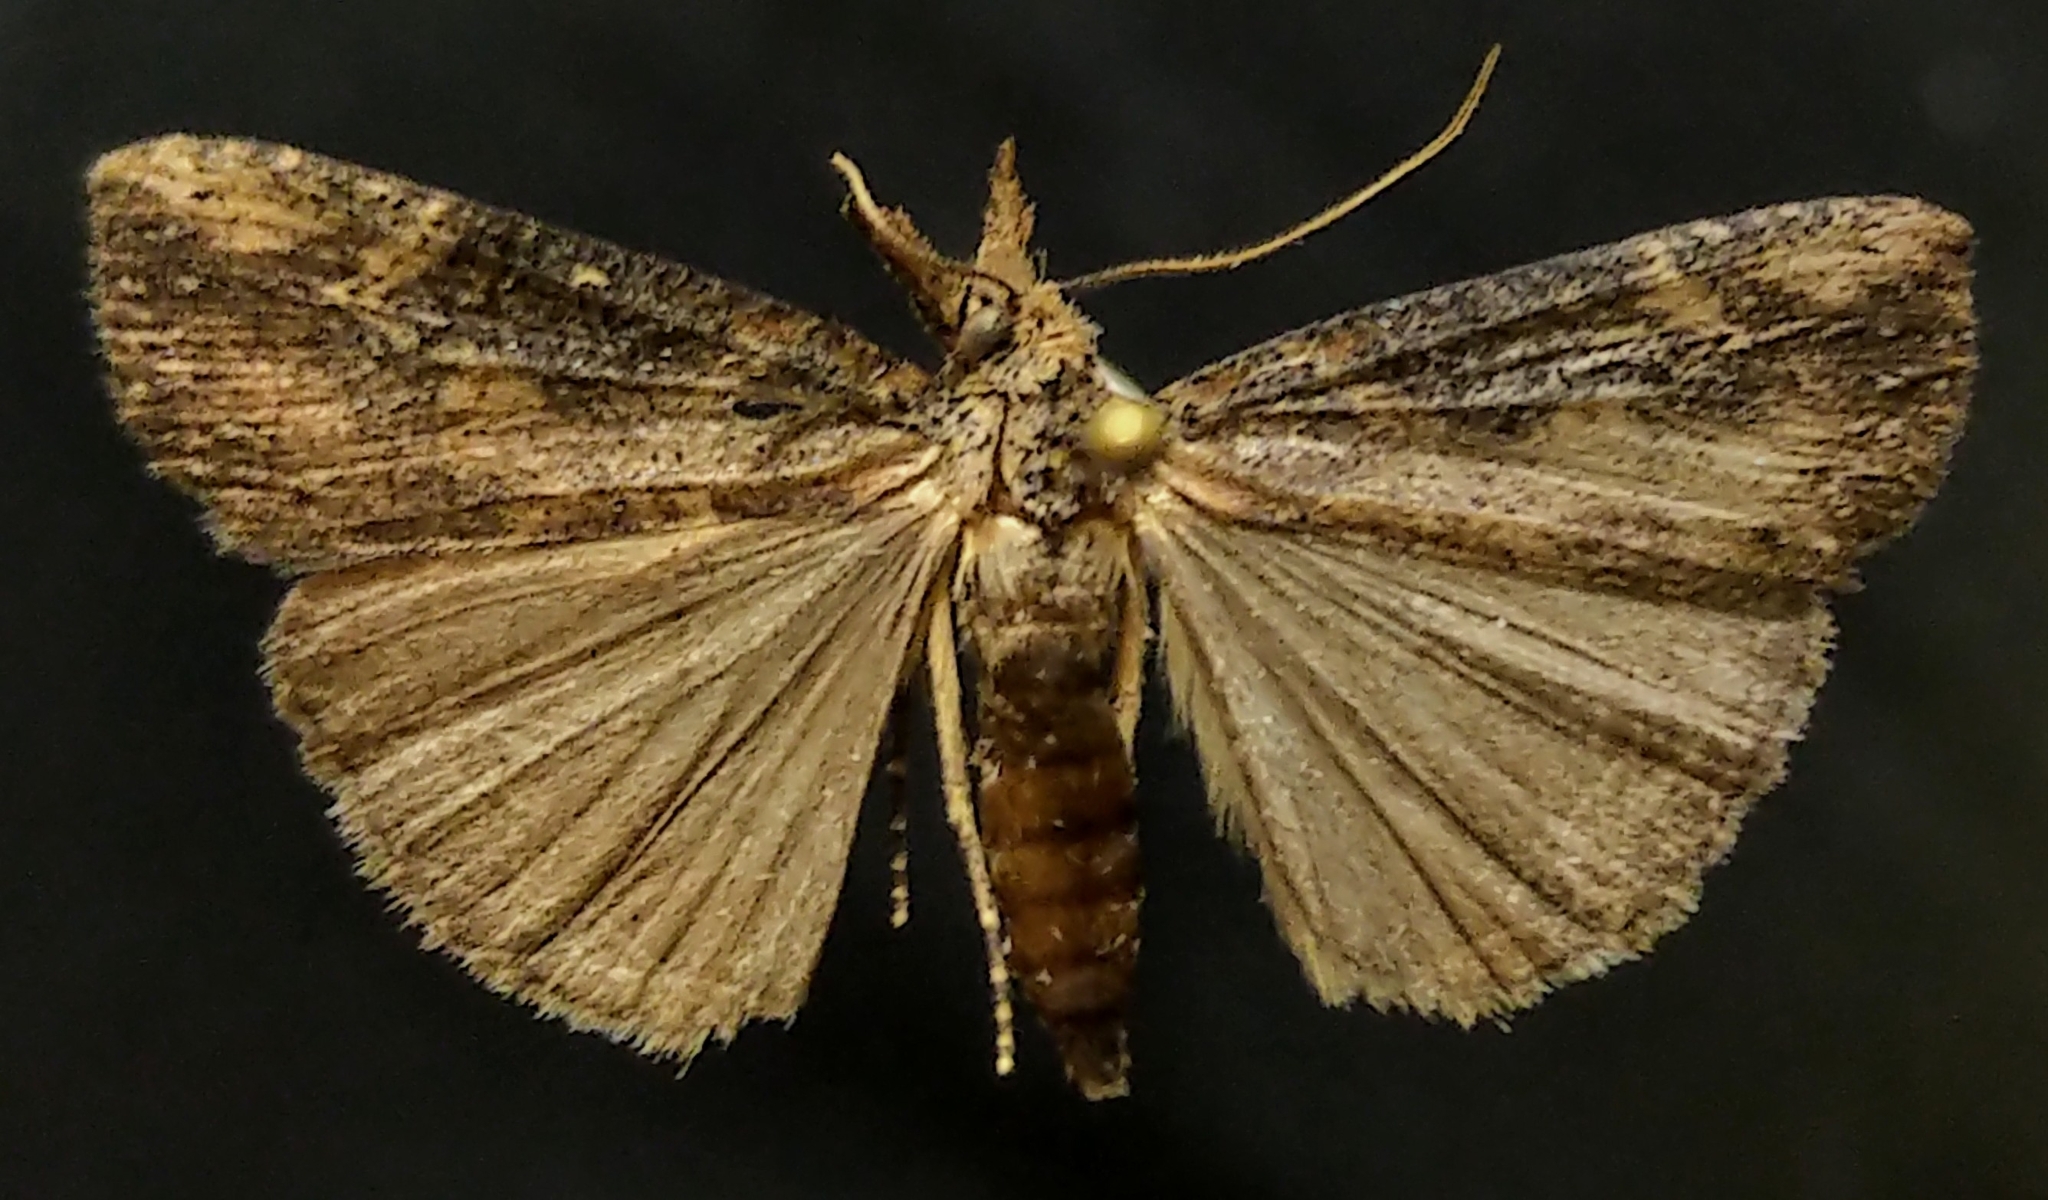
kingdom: Animalia
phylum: Arthropoda
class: Insecta
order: Lepidoptera
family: Erebidae
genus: Hypena
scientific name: Hypena humuli
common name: Hop vine snout
